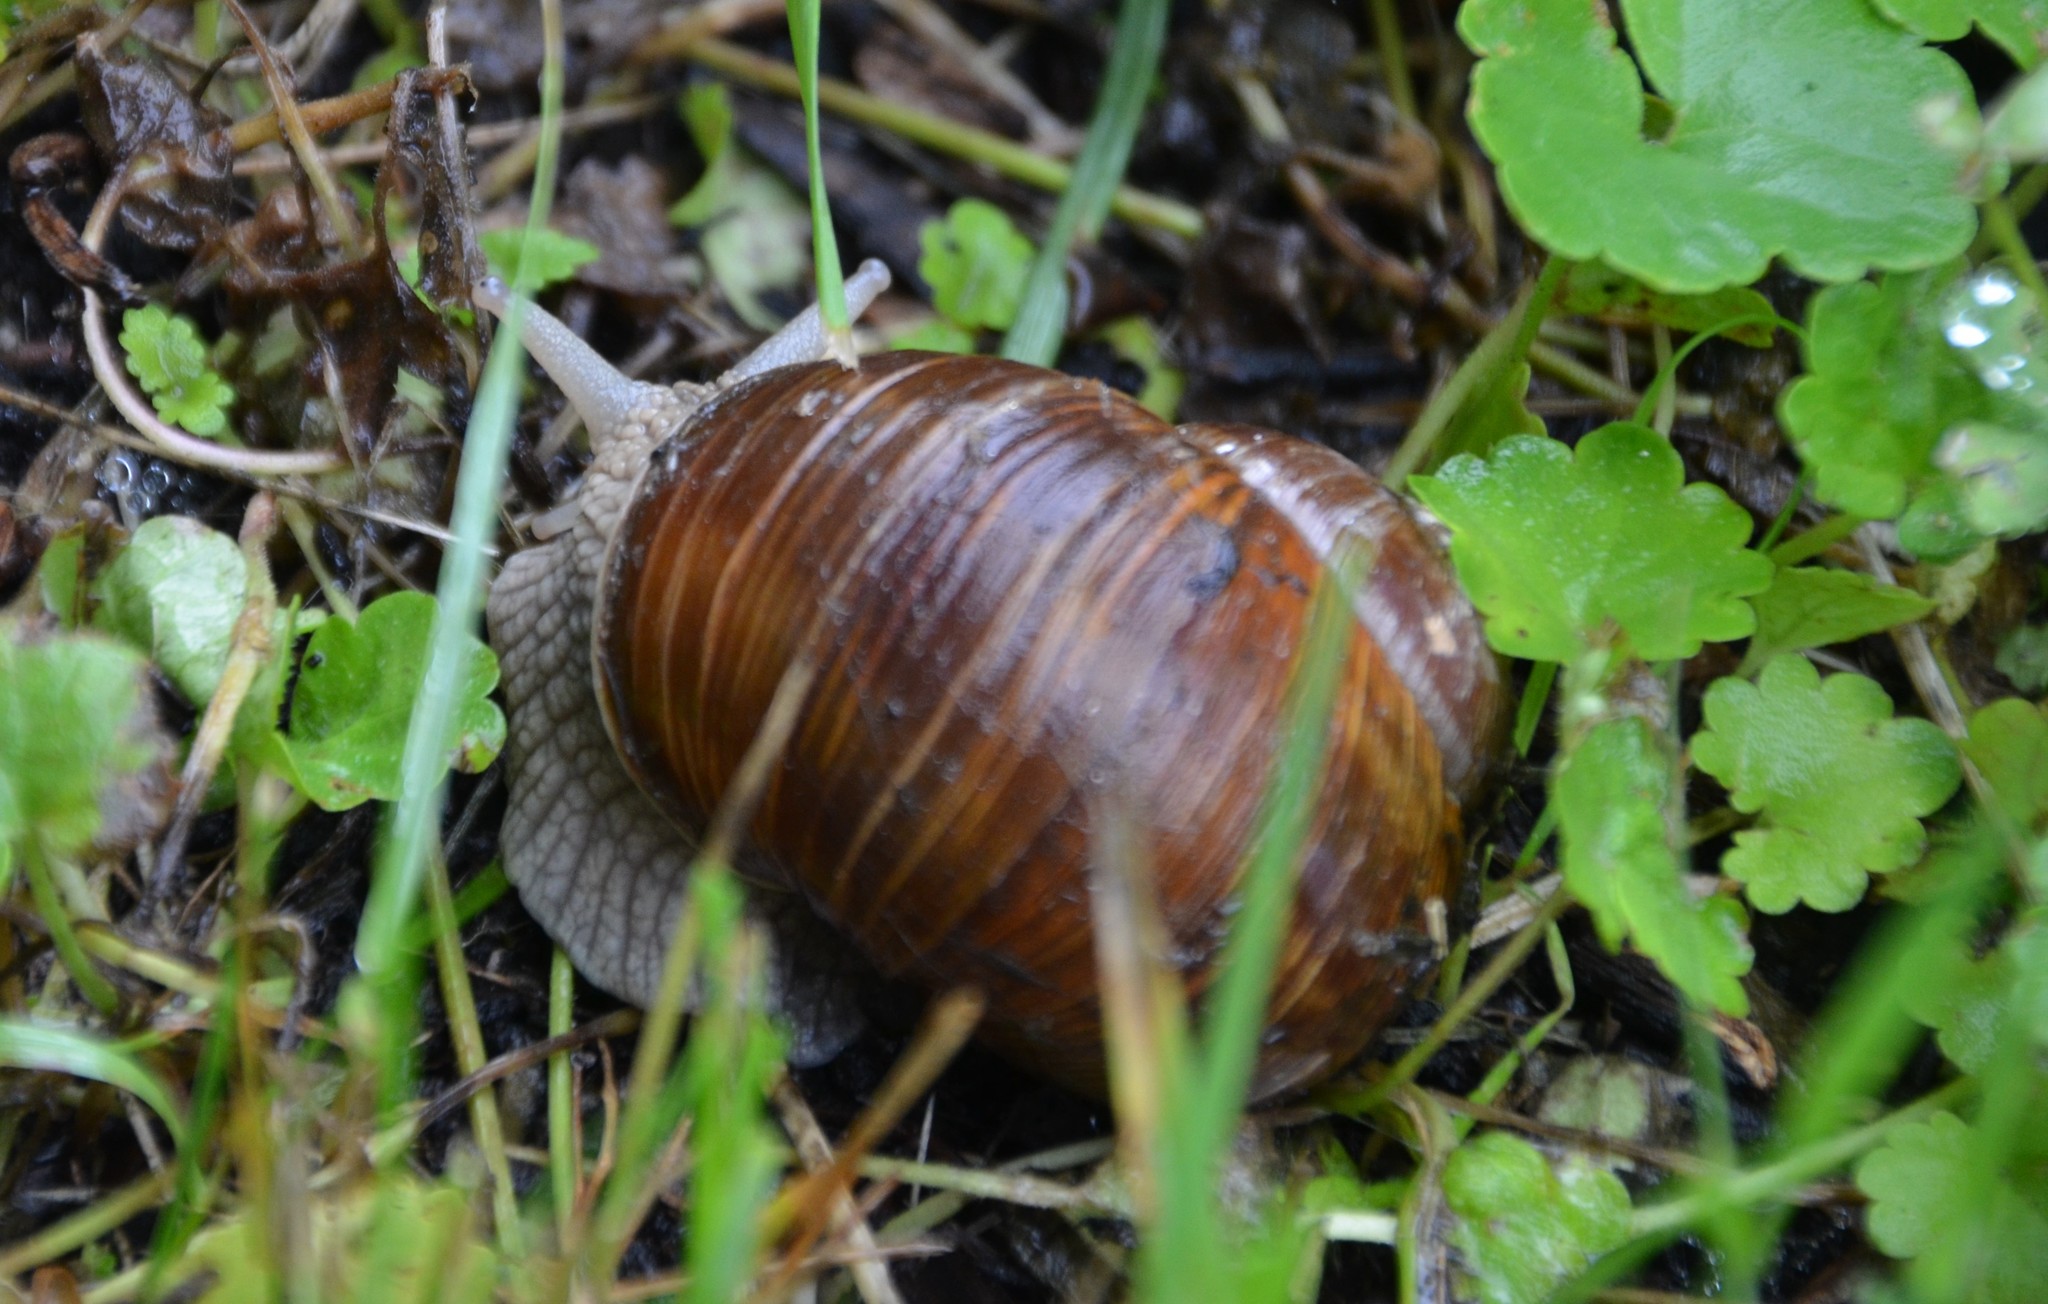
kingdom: Animalia
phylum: Mollusca
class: Gastropoda
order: Stylommatophora
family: Helicidae
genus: Helix
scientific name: Helix pomatia
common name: Roman snail
